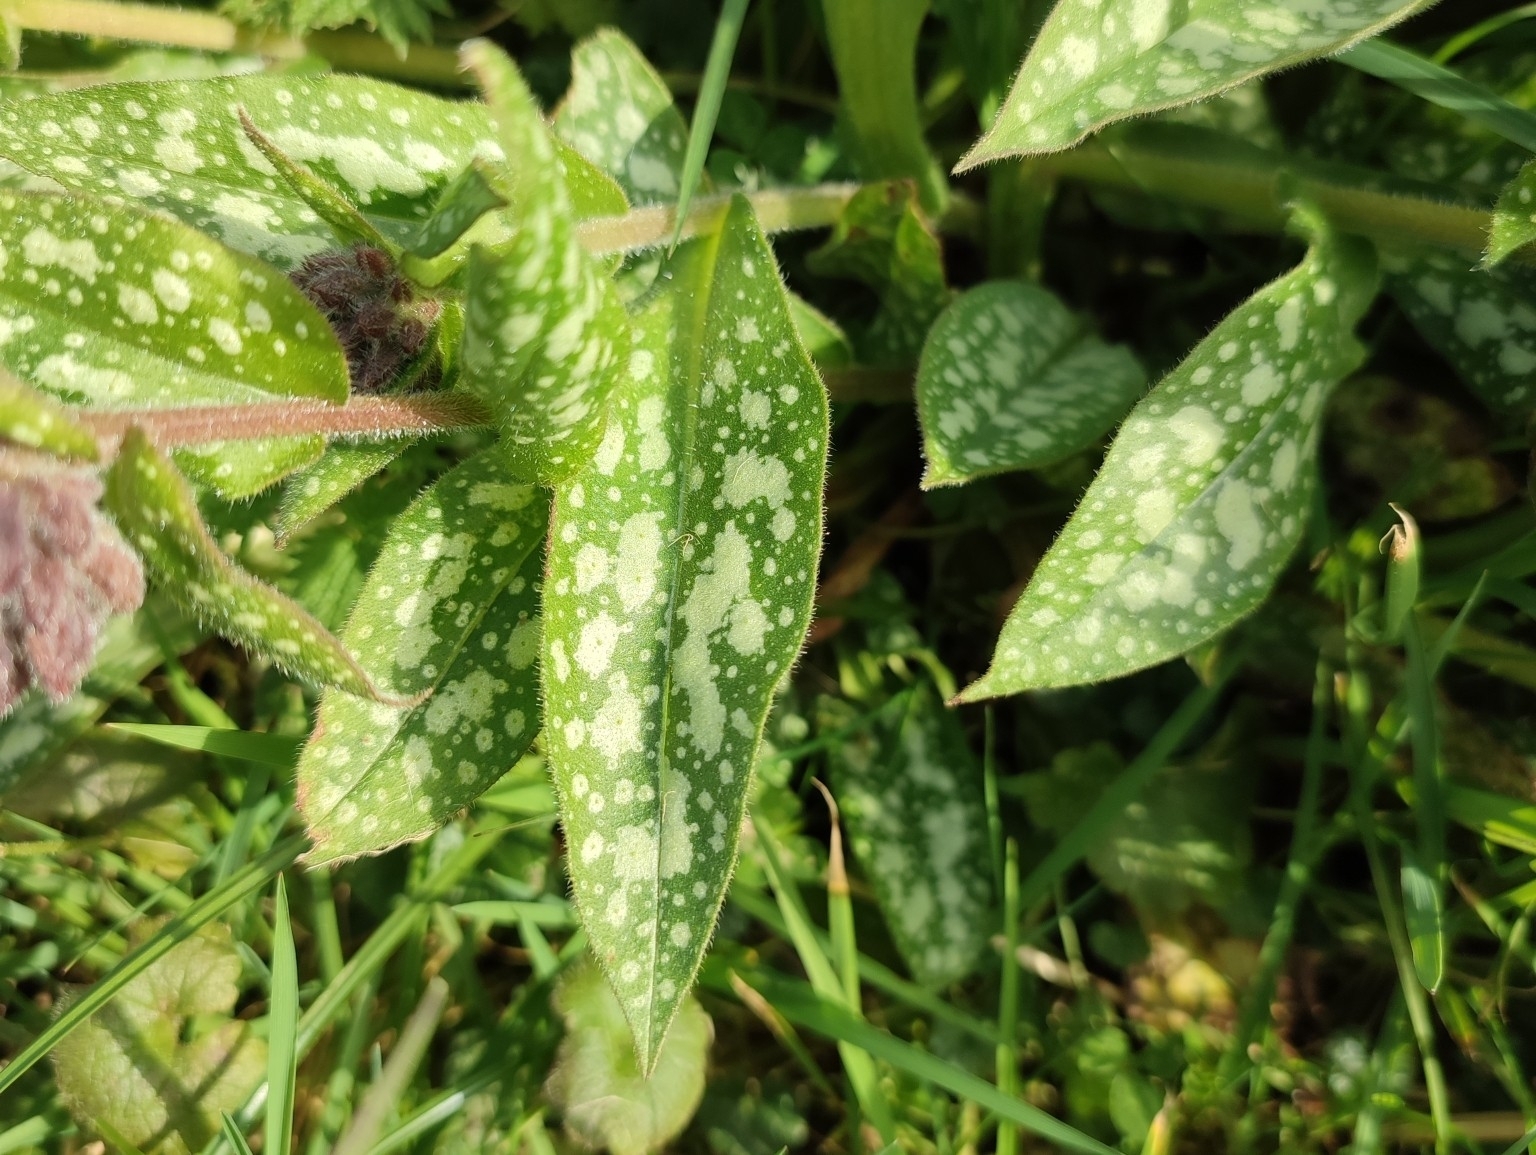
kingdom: Plantae
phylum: Tracheophyta
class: Magnoliopsida
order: Boraginales
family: Boraginaceae
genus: Pulmonaria
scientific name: Pulmonaria officinalis
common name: Lungwort
